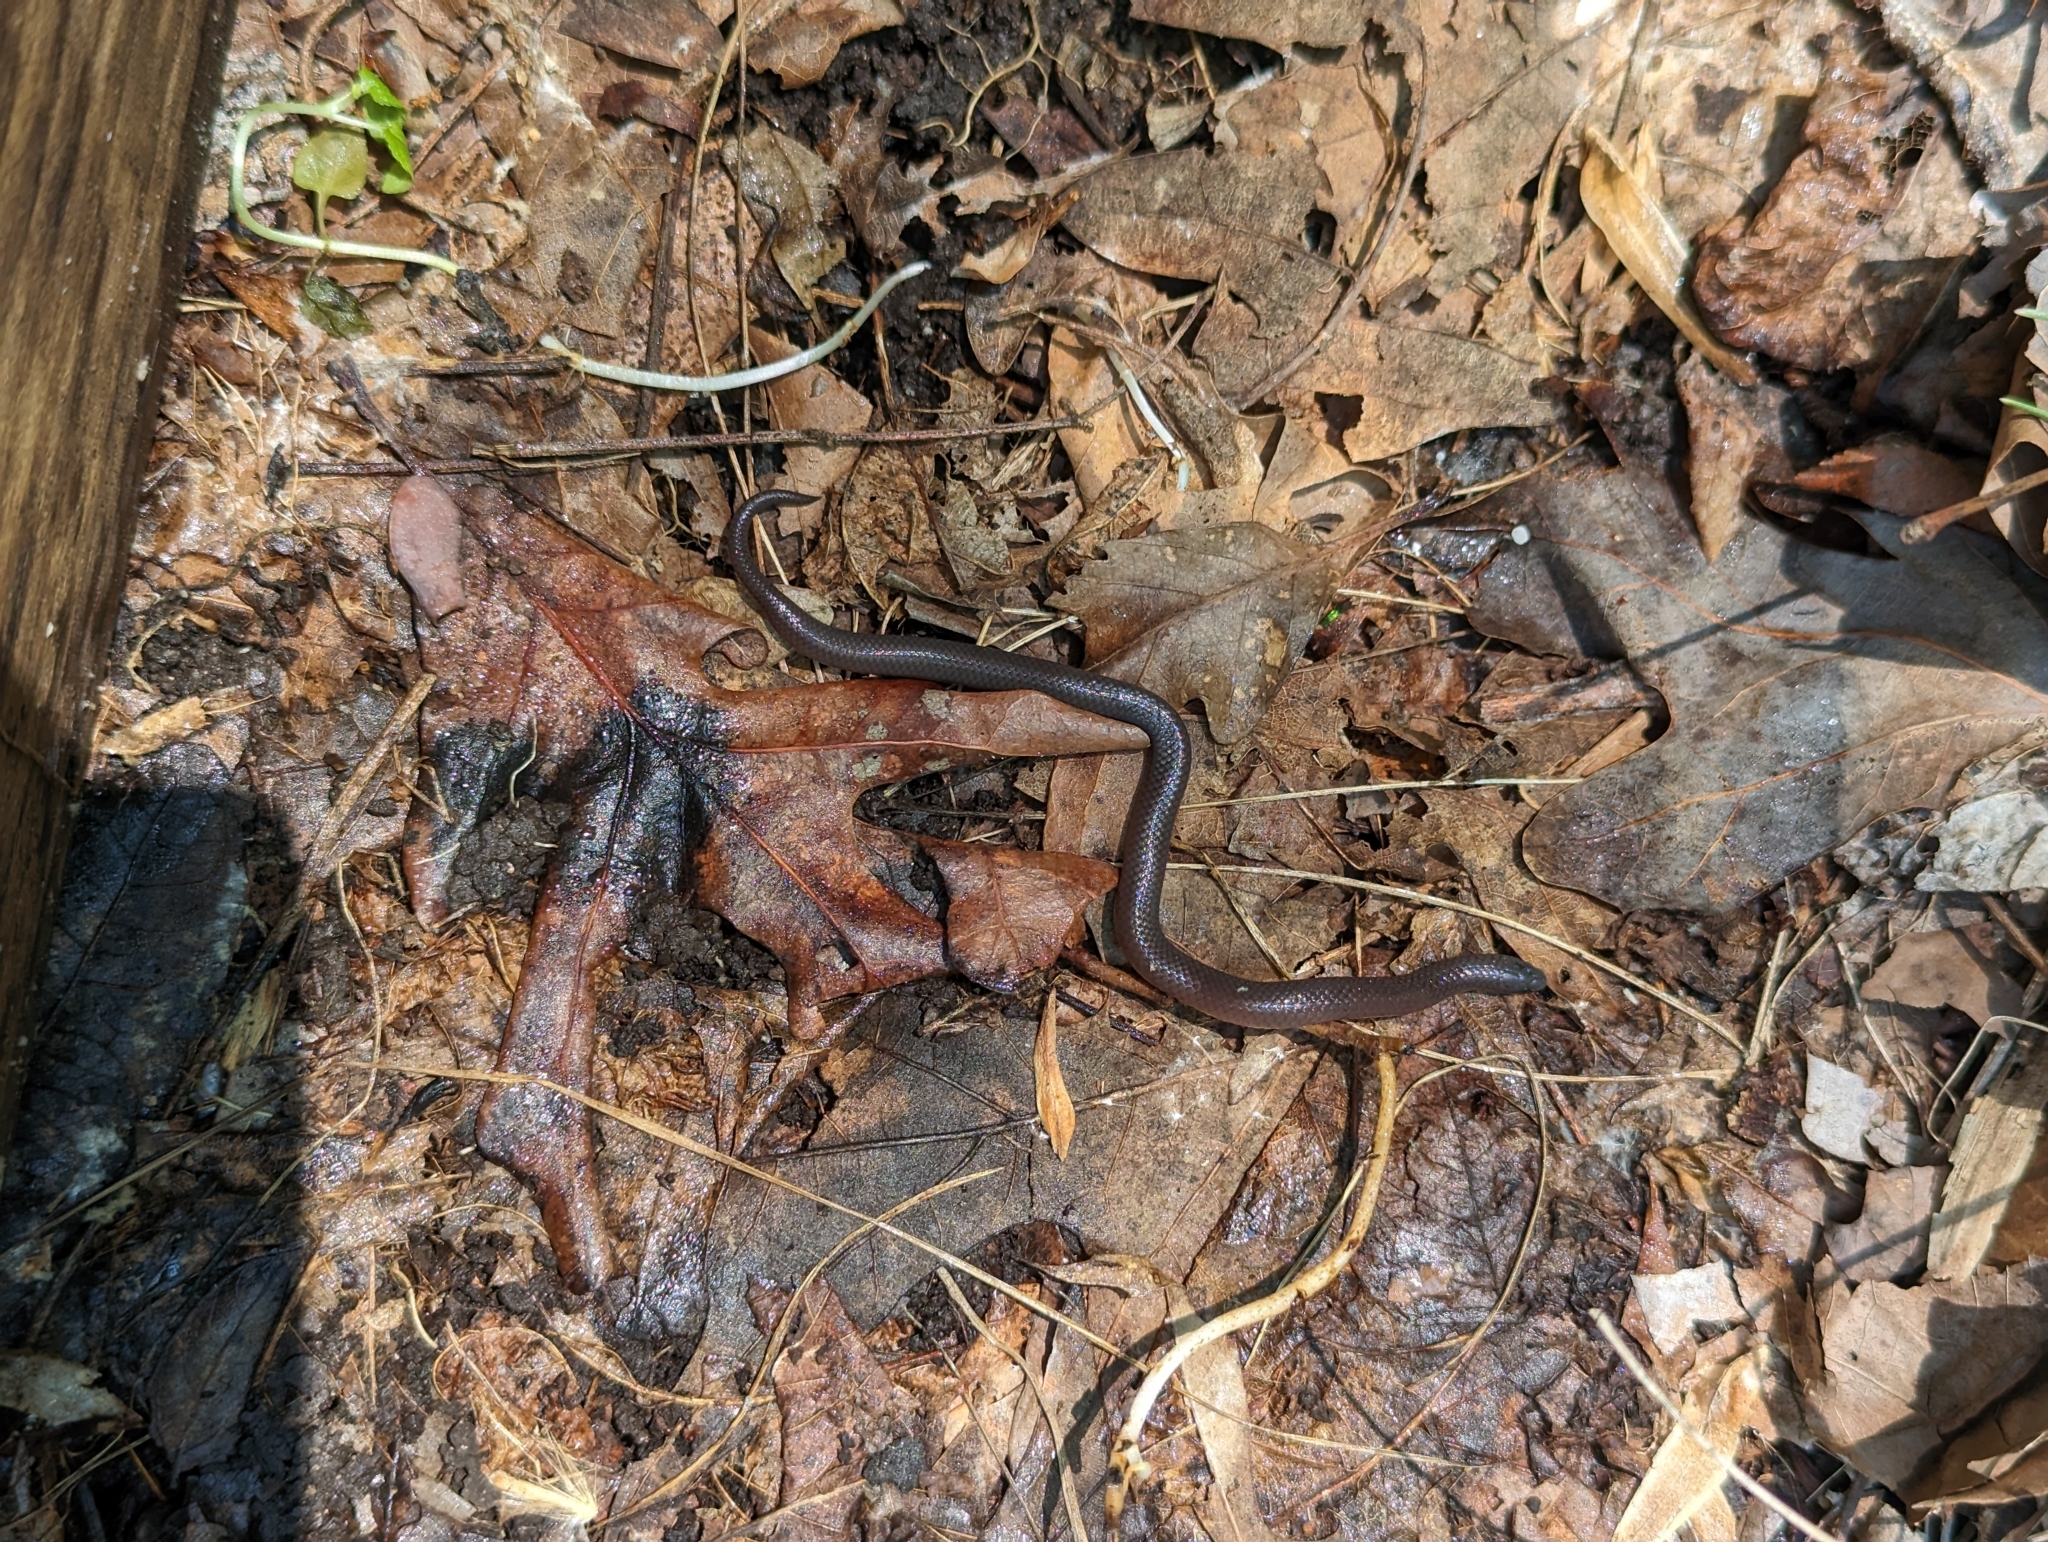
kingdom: Animalia
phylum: Chordata
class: Squamata
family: Colubridae
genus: Carphophis
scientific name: Carphophis amoenus
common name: Eastern worm snake
